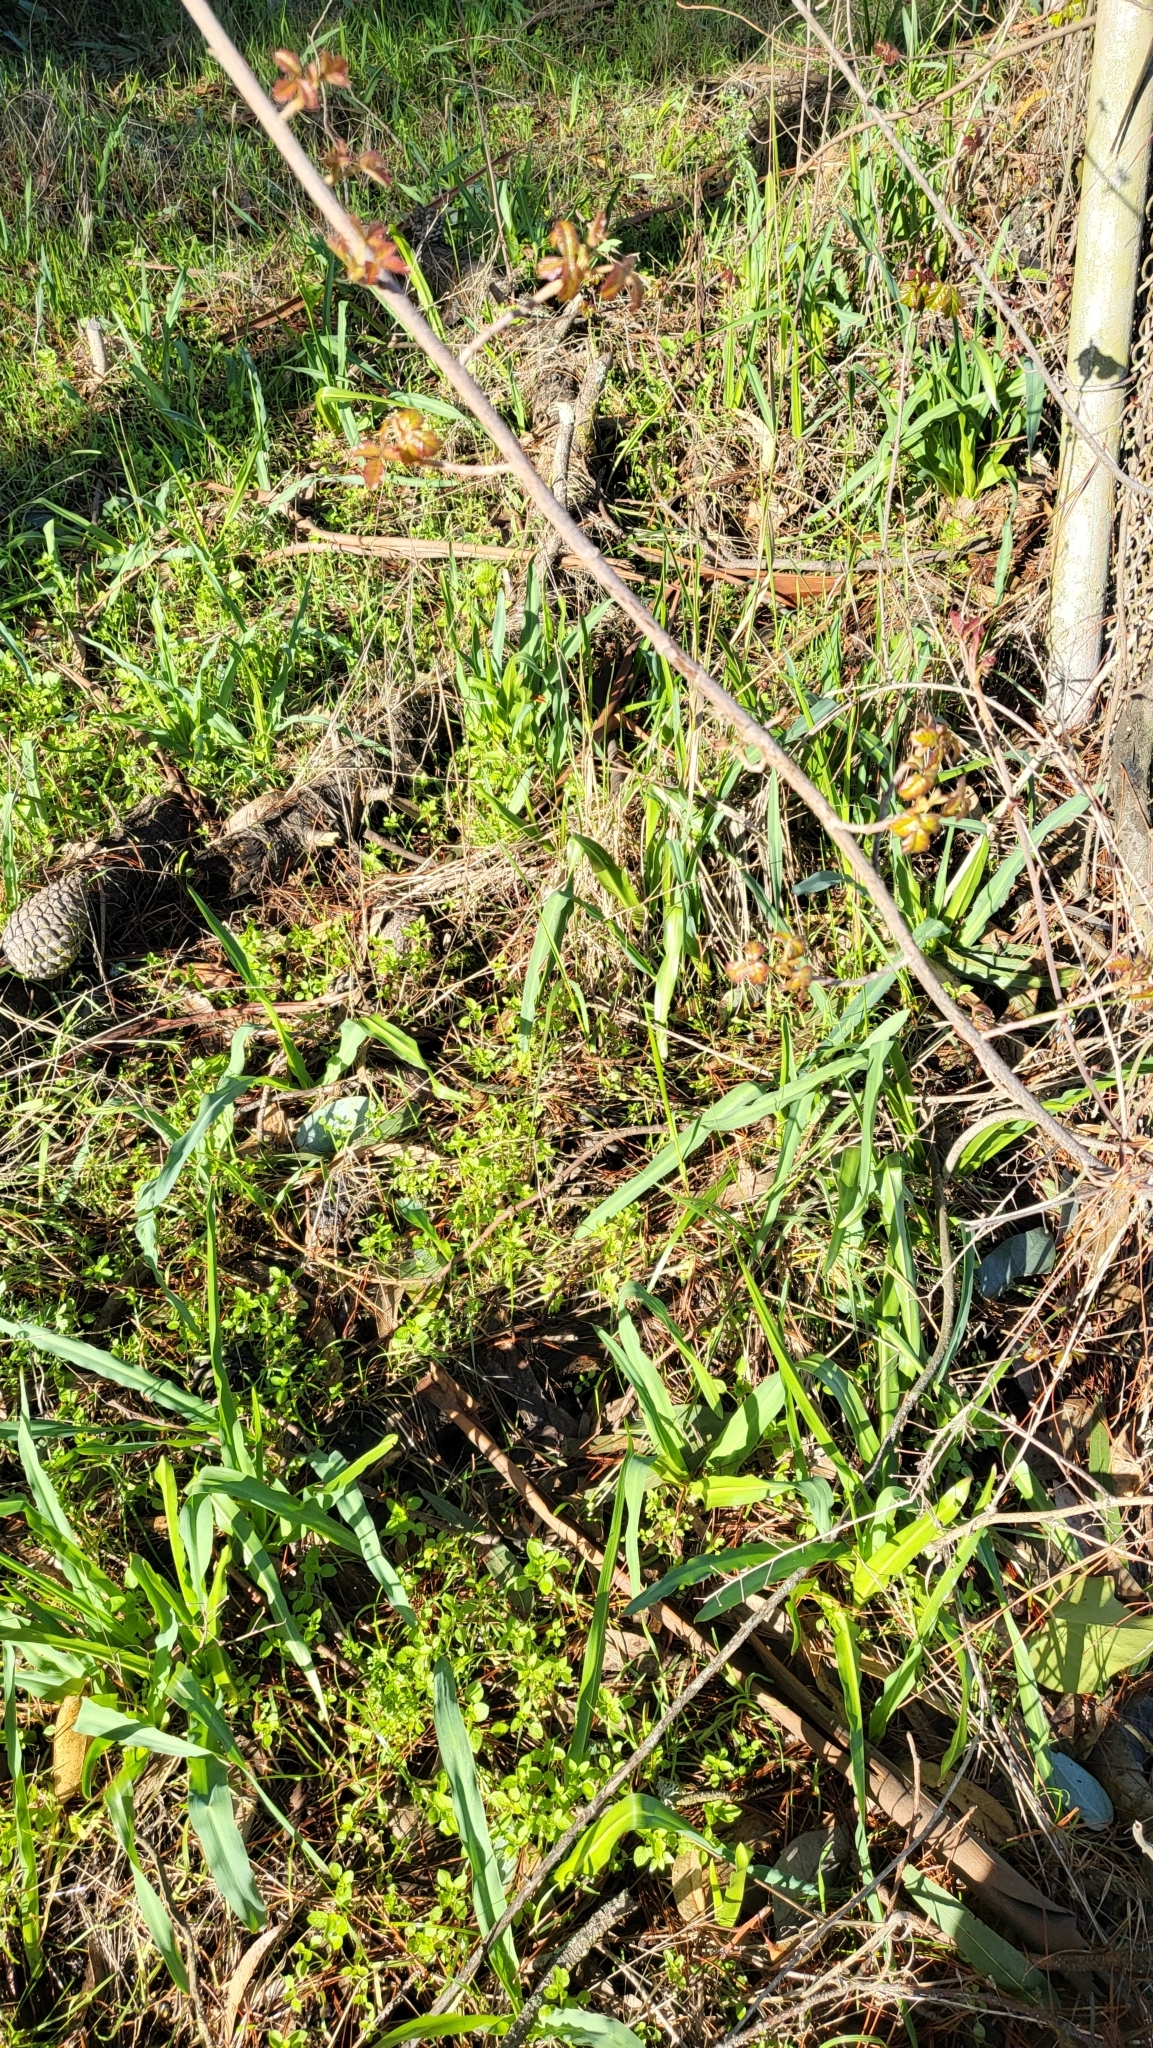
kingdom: Plantae
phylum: Tracheophyta
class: Liliopsida
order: Asparagales
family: Asparagaceae
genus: Chlorogalum
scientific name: Chlorogalum pomeridianum
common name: Amole
